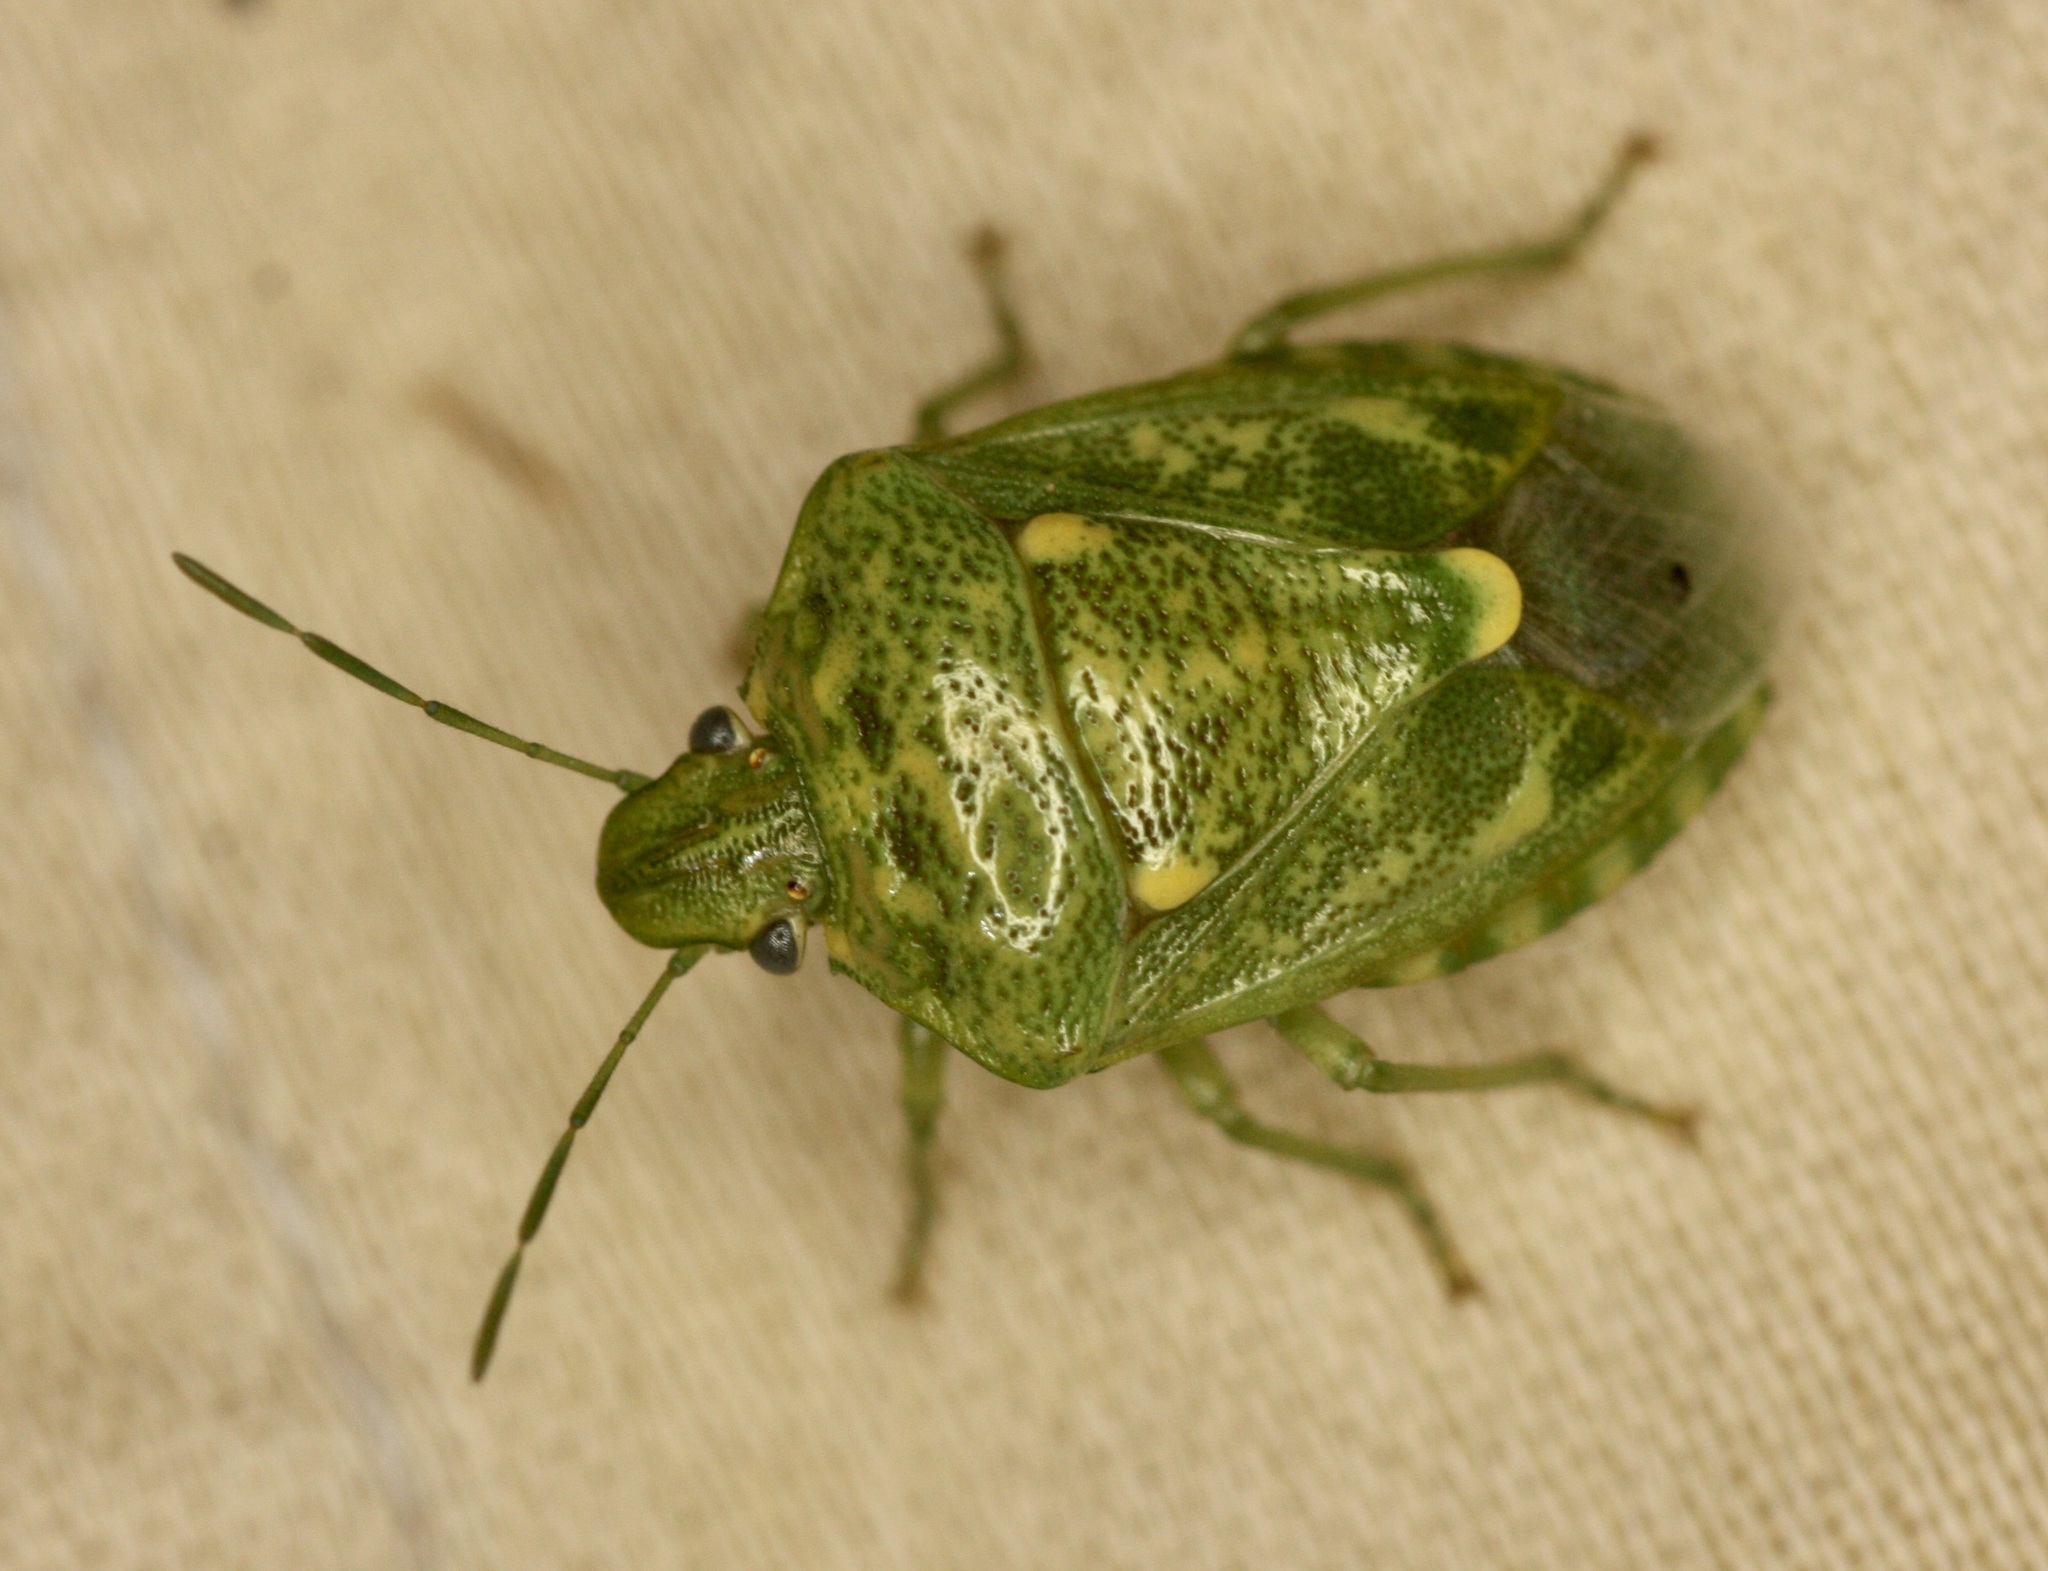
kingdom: Animalia
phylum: Arthropoda
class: Insecta
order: Hemiptera
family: Pentatomidae
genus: Banasa
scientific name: Banasa euchlora
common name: Cedar berry bug
